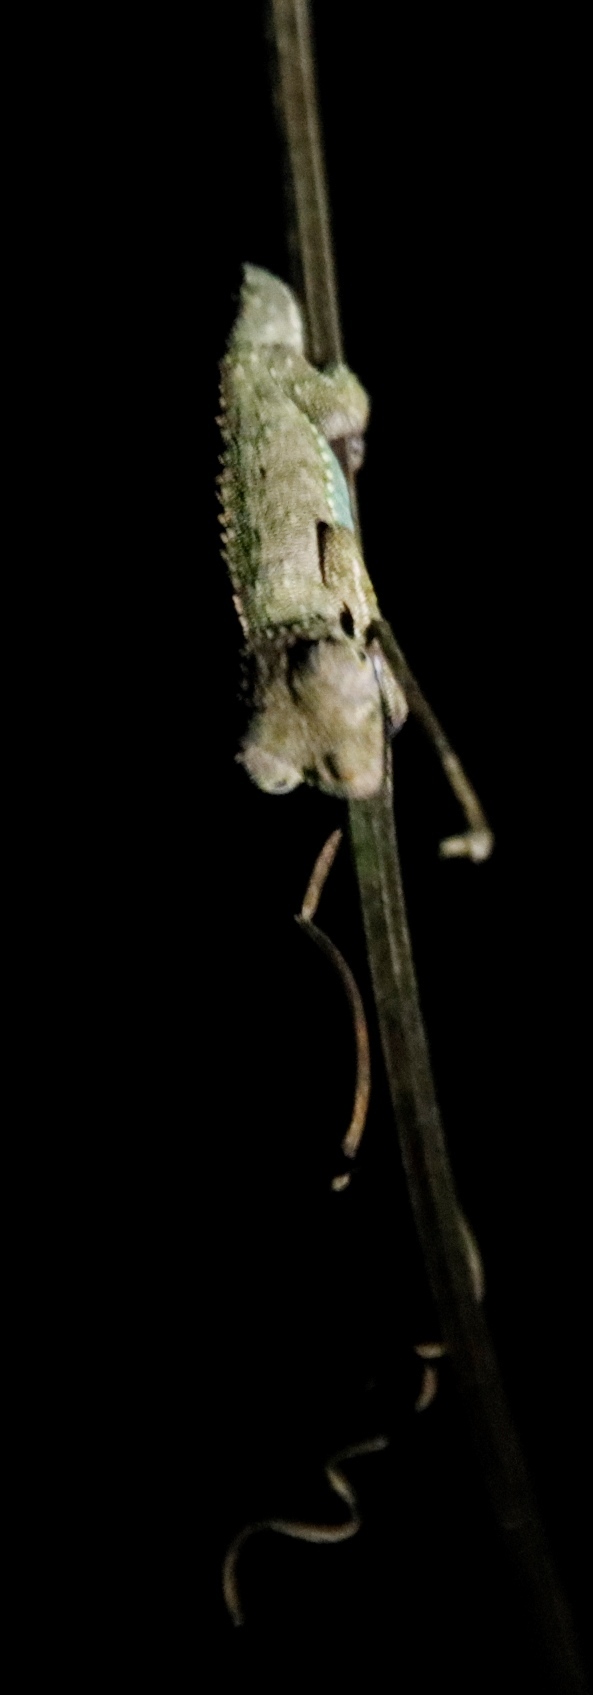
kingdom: Animalia
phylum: Chordata
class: Squamata
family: Chamaeleonidae
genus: Rhampholeon
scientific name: Rhampholeon marshalli
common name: Marshall's african leaf chameleon
